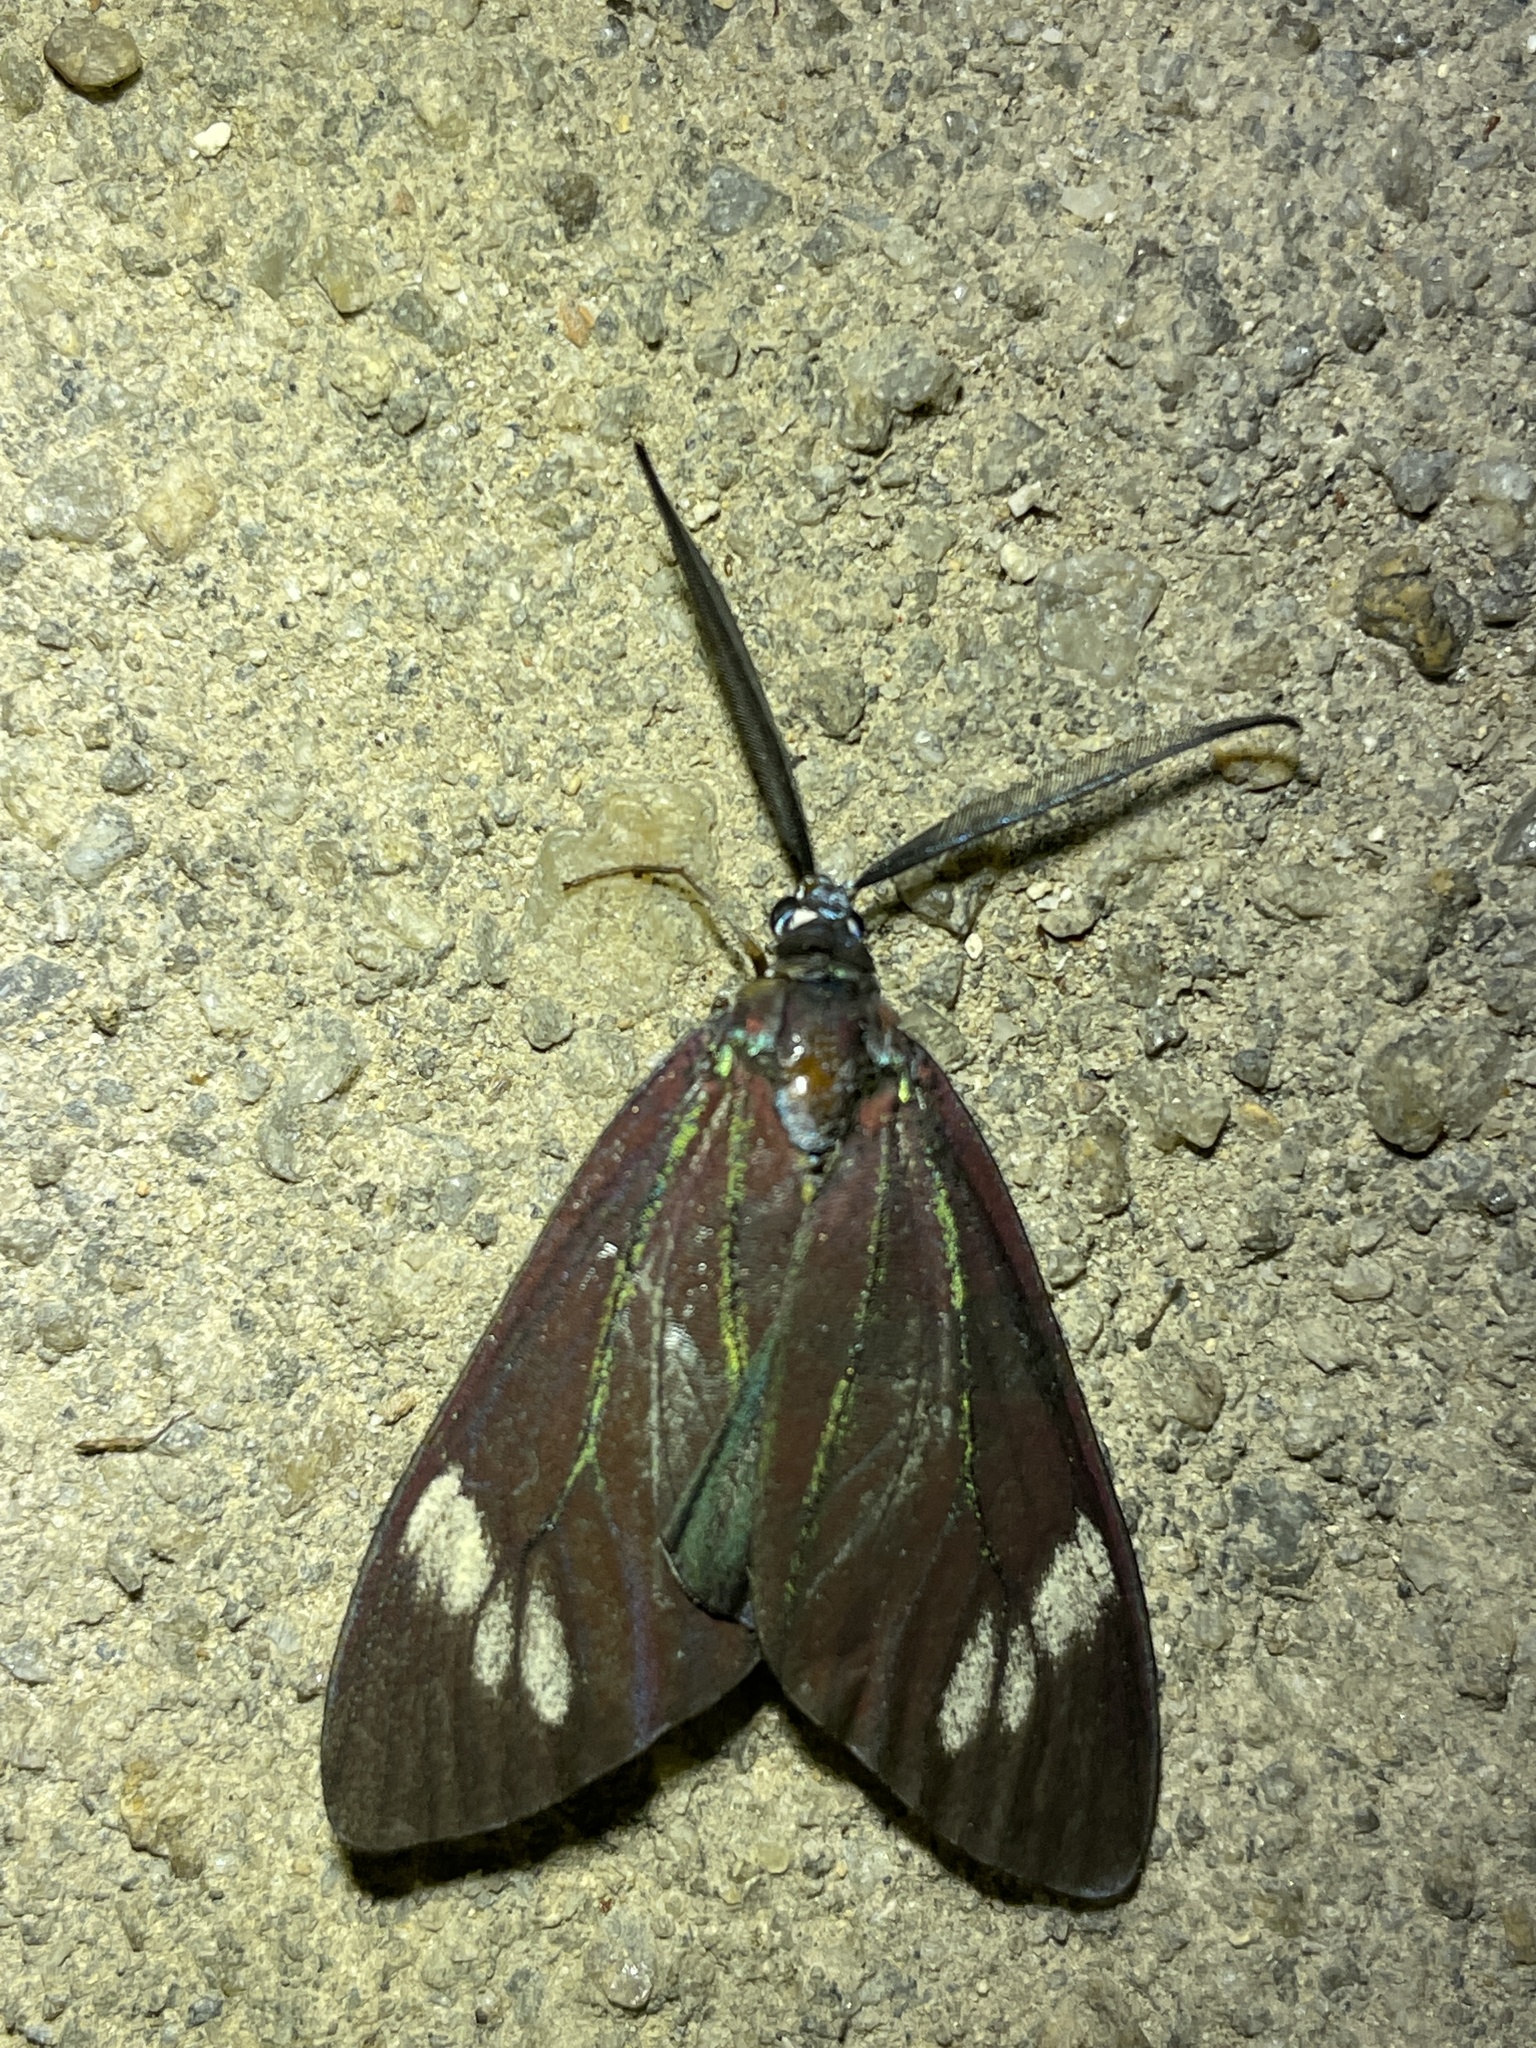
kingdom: Animalia
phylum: Arthropoda
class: Insecta
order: Lepidoptera
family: Zygaenidae
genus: Cyclosia
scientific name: Cyclosia papilionaris
